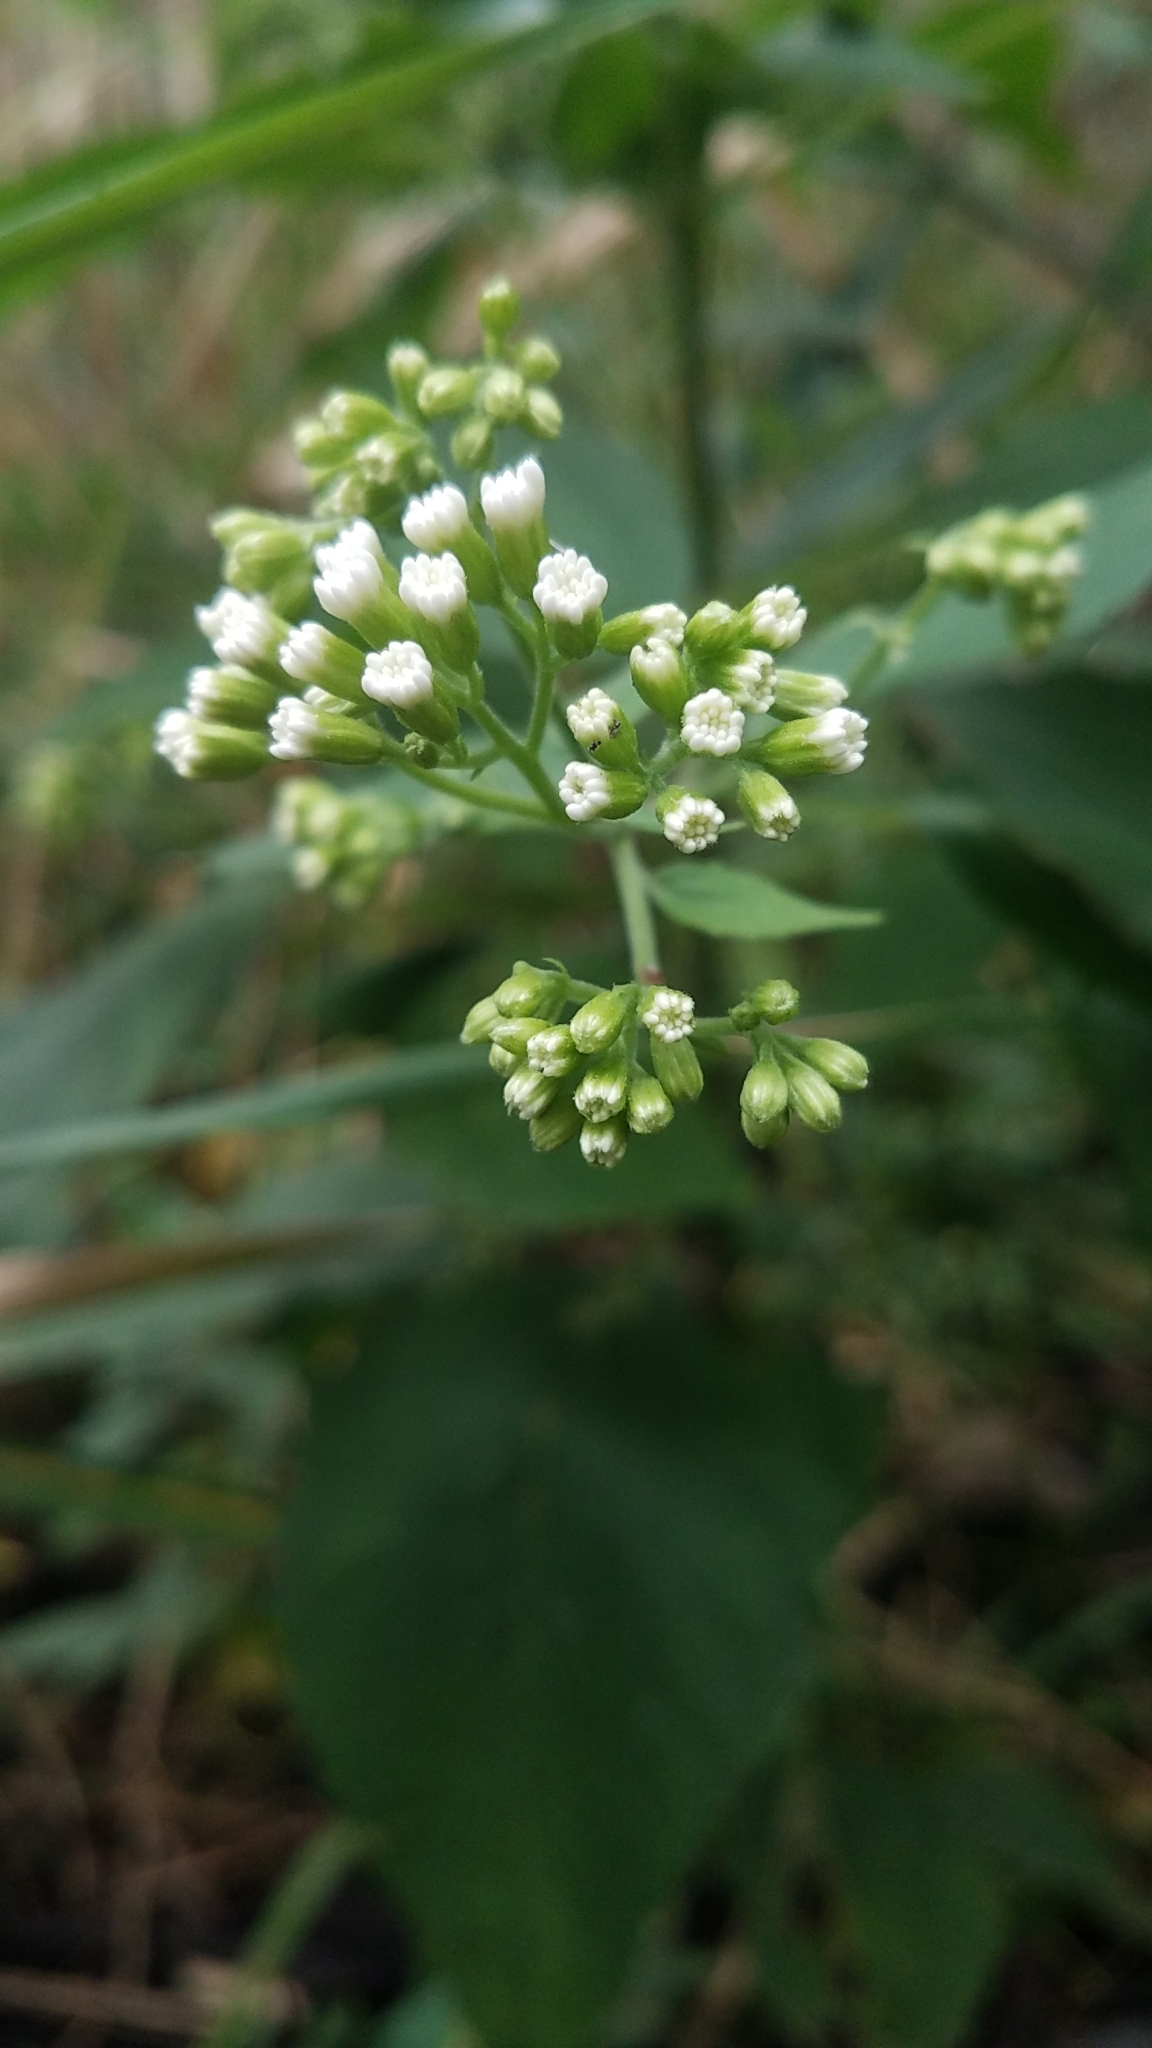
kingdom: Plantae
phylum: Tracheophyta
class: Magnoliopsida
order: Asterales
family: Asteraceae
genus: Ageratina
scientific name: Ageratina altissima
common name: White snakeroot
